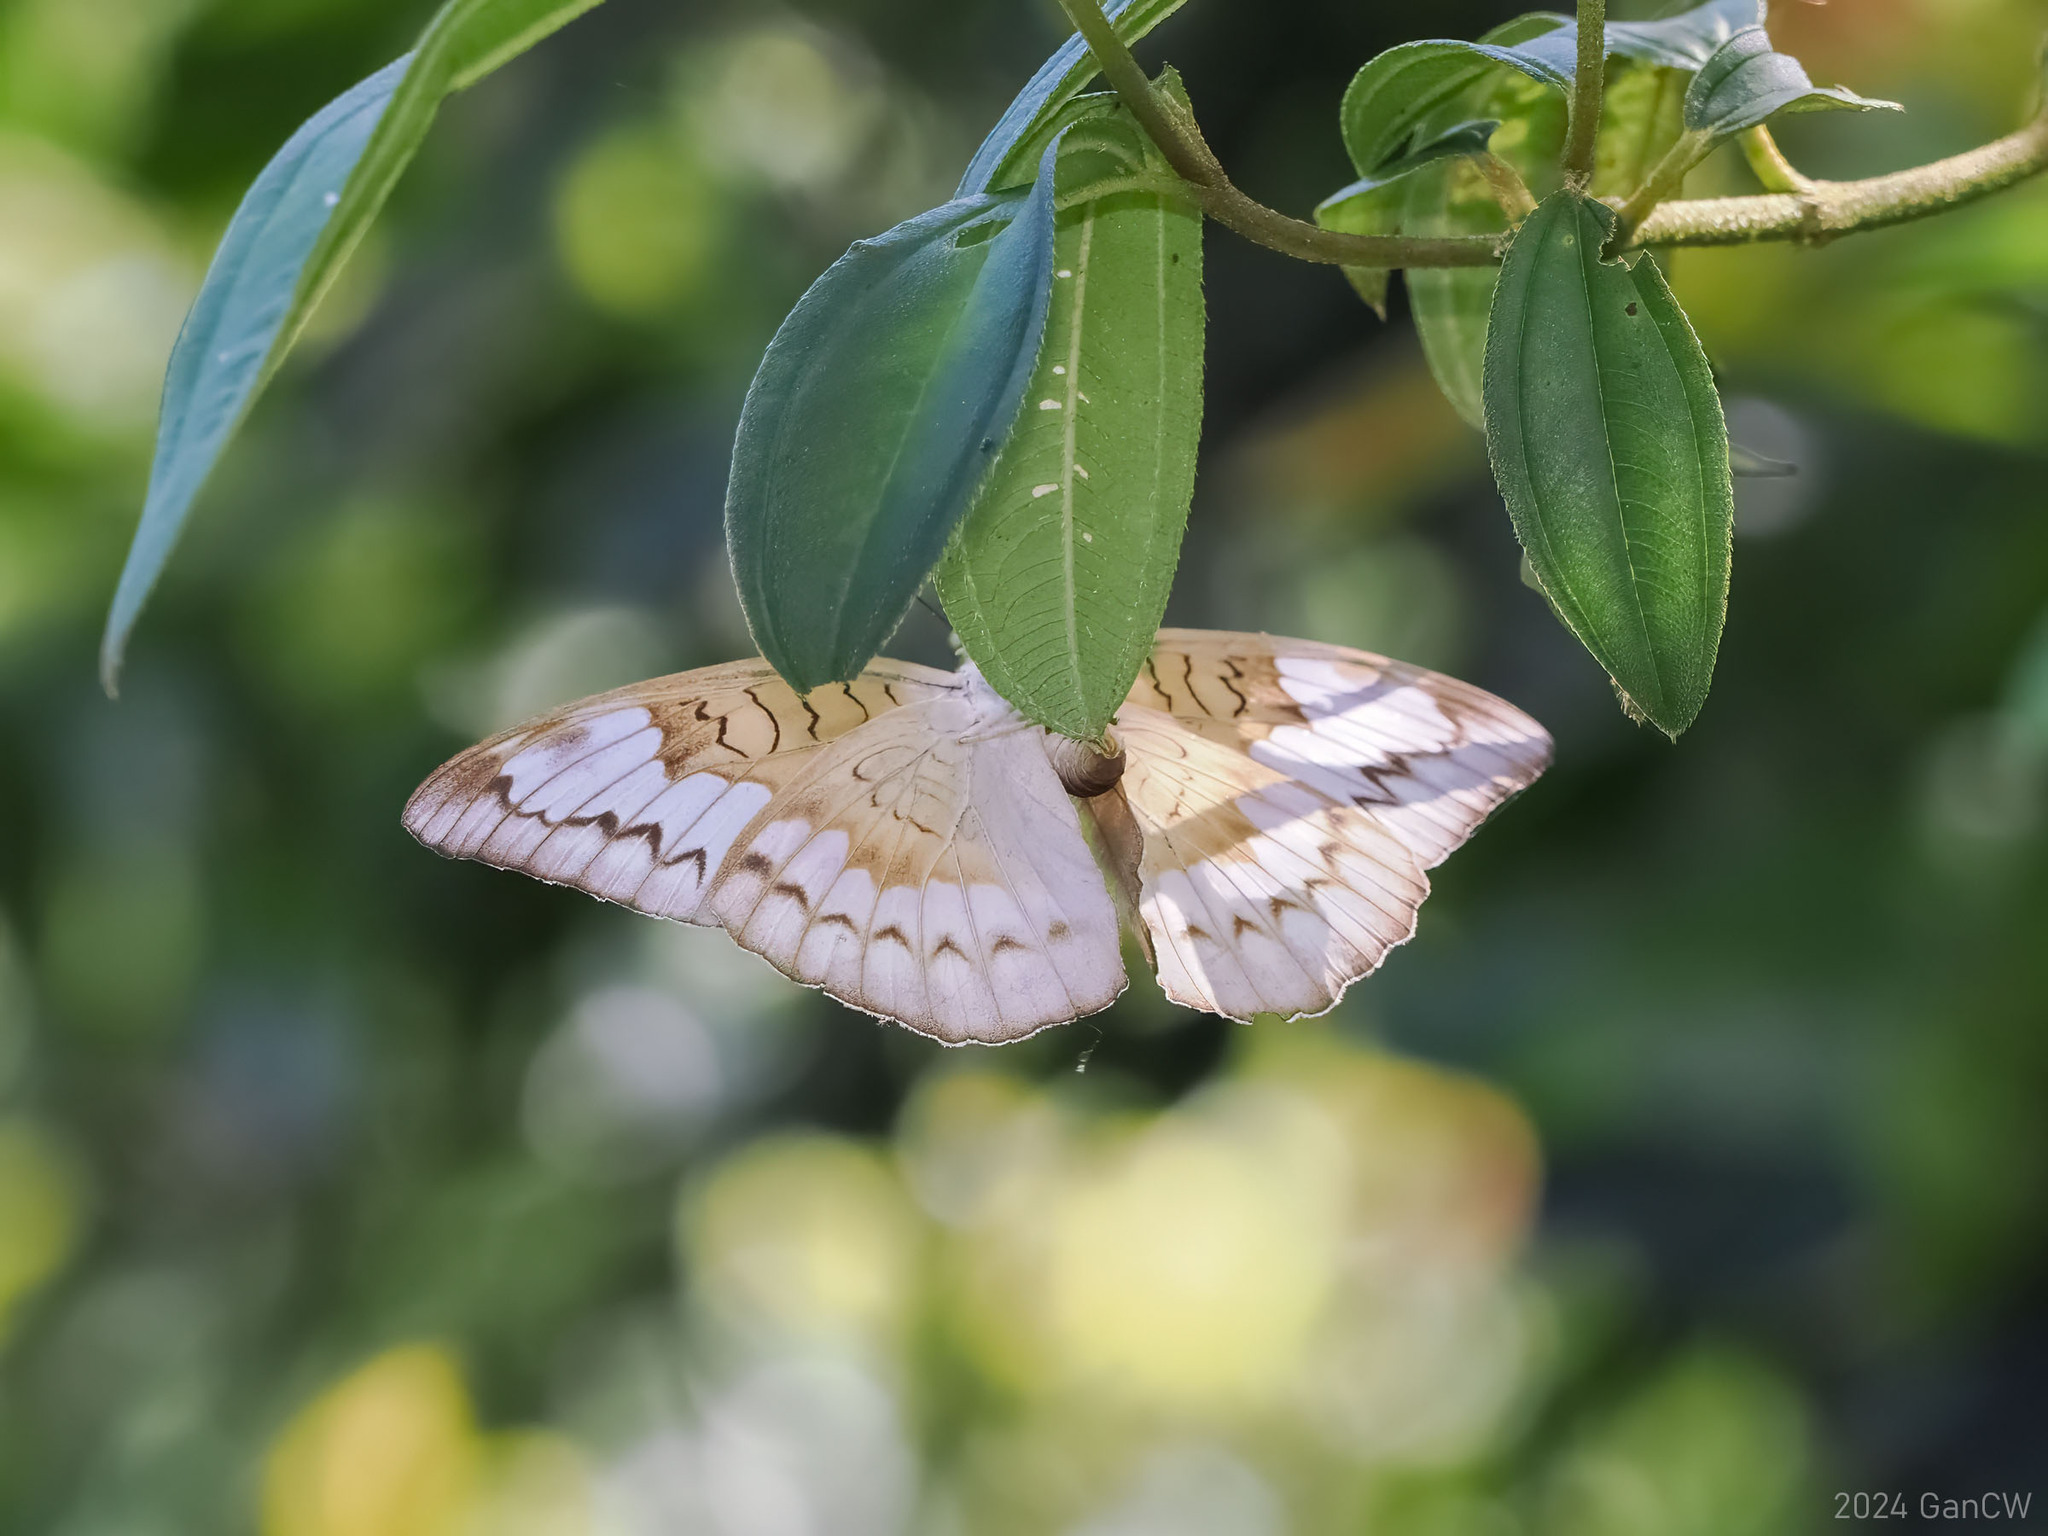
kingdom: Animalia
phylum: Arthropoda
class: Insecta
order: Lepidoptera
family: Nymphalidae
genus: Tanaecia
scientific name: Tanaecia iapis
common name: Horsfield's baron
